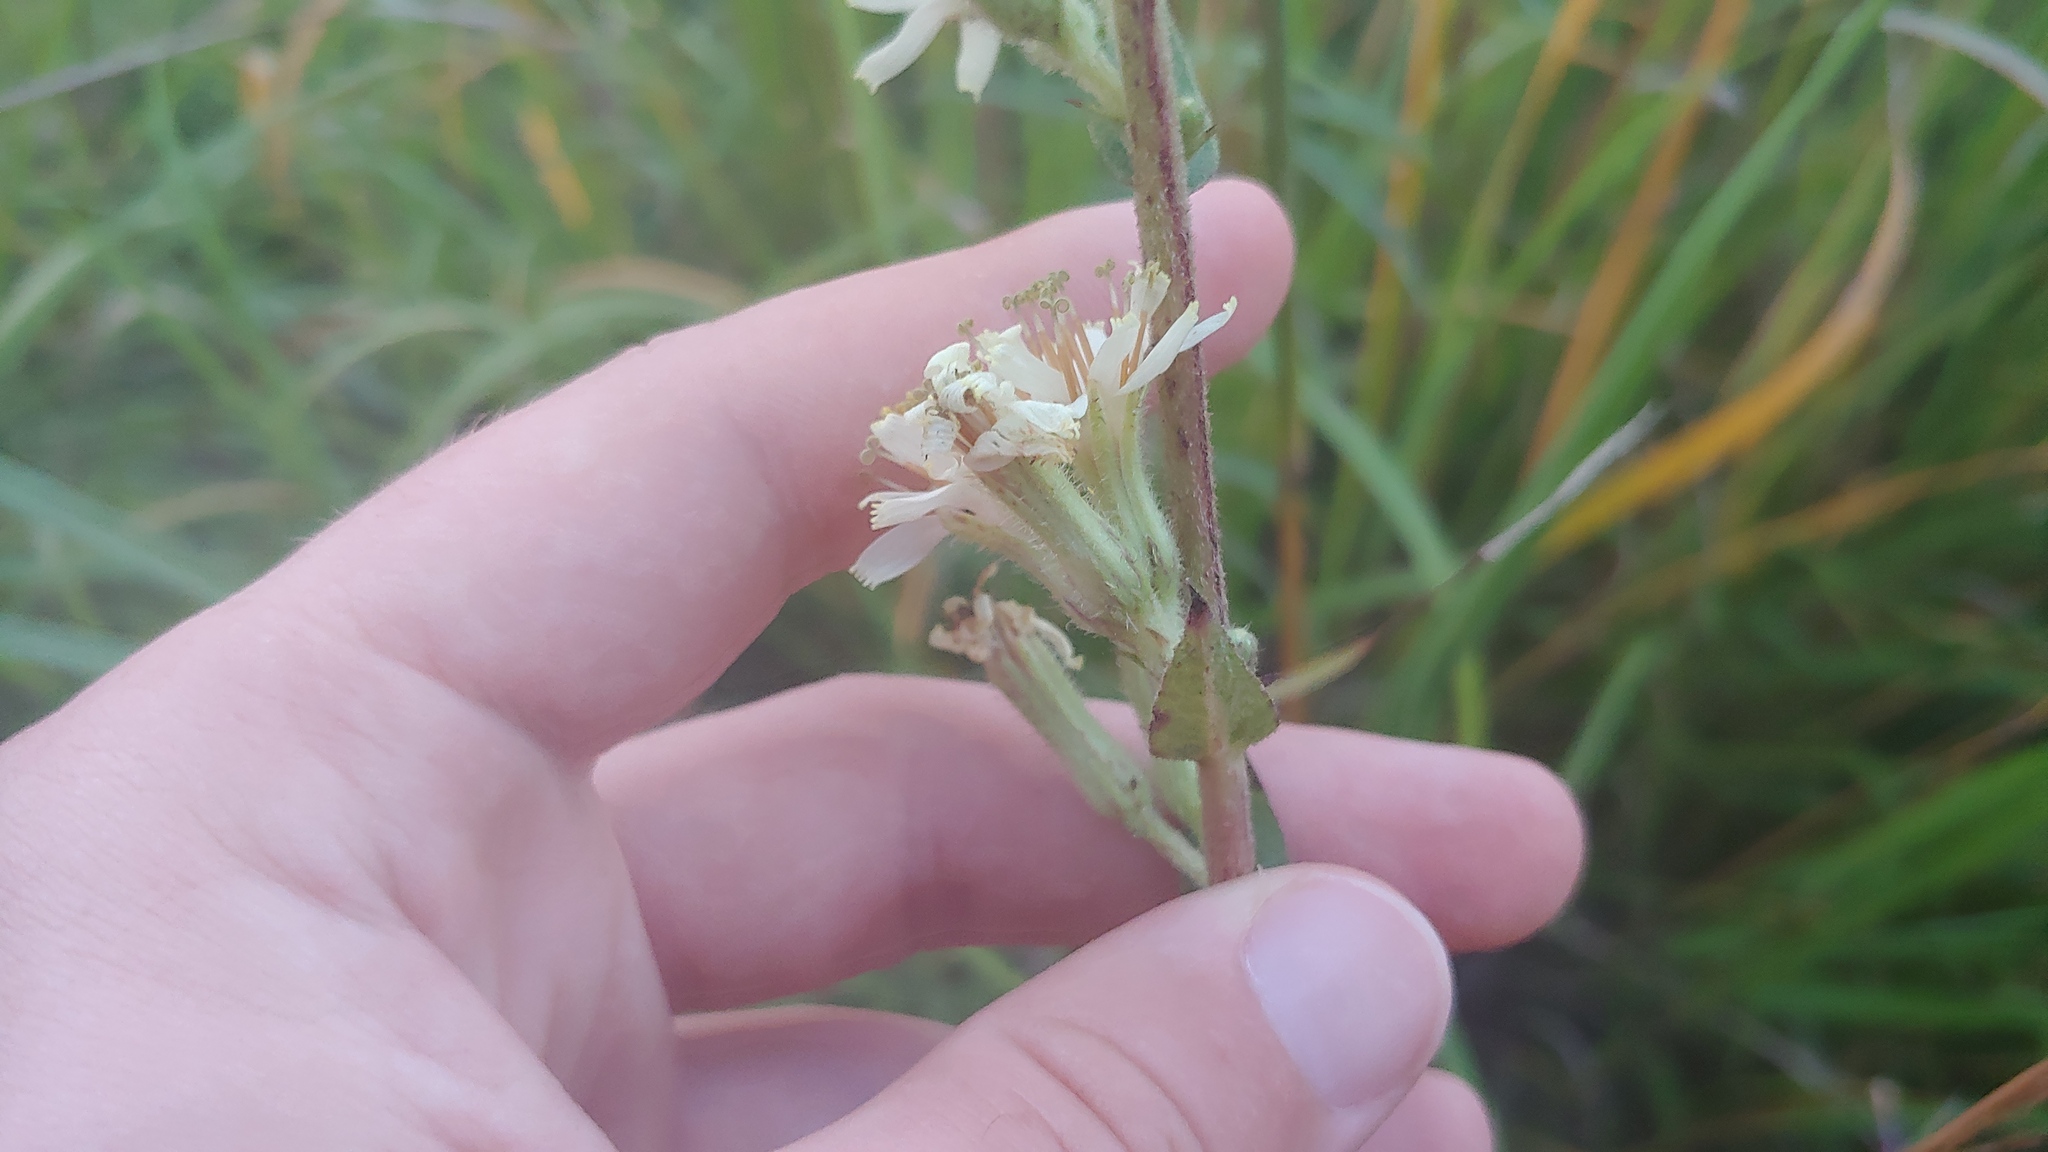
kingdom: Plantae
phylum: Tracheophyta
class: Magnoliopsida
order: Asterales
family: Asteraceae
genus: Nabalus
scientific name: Nabalus asper
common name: Rough rattlesnakeroot
